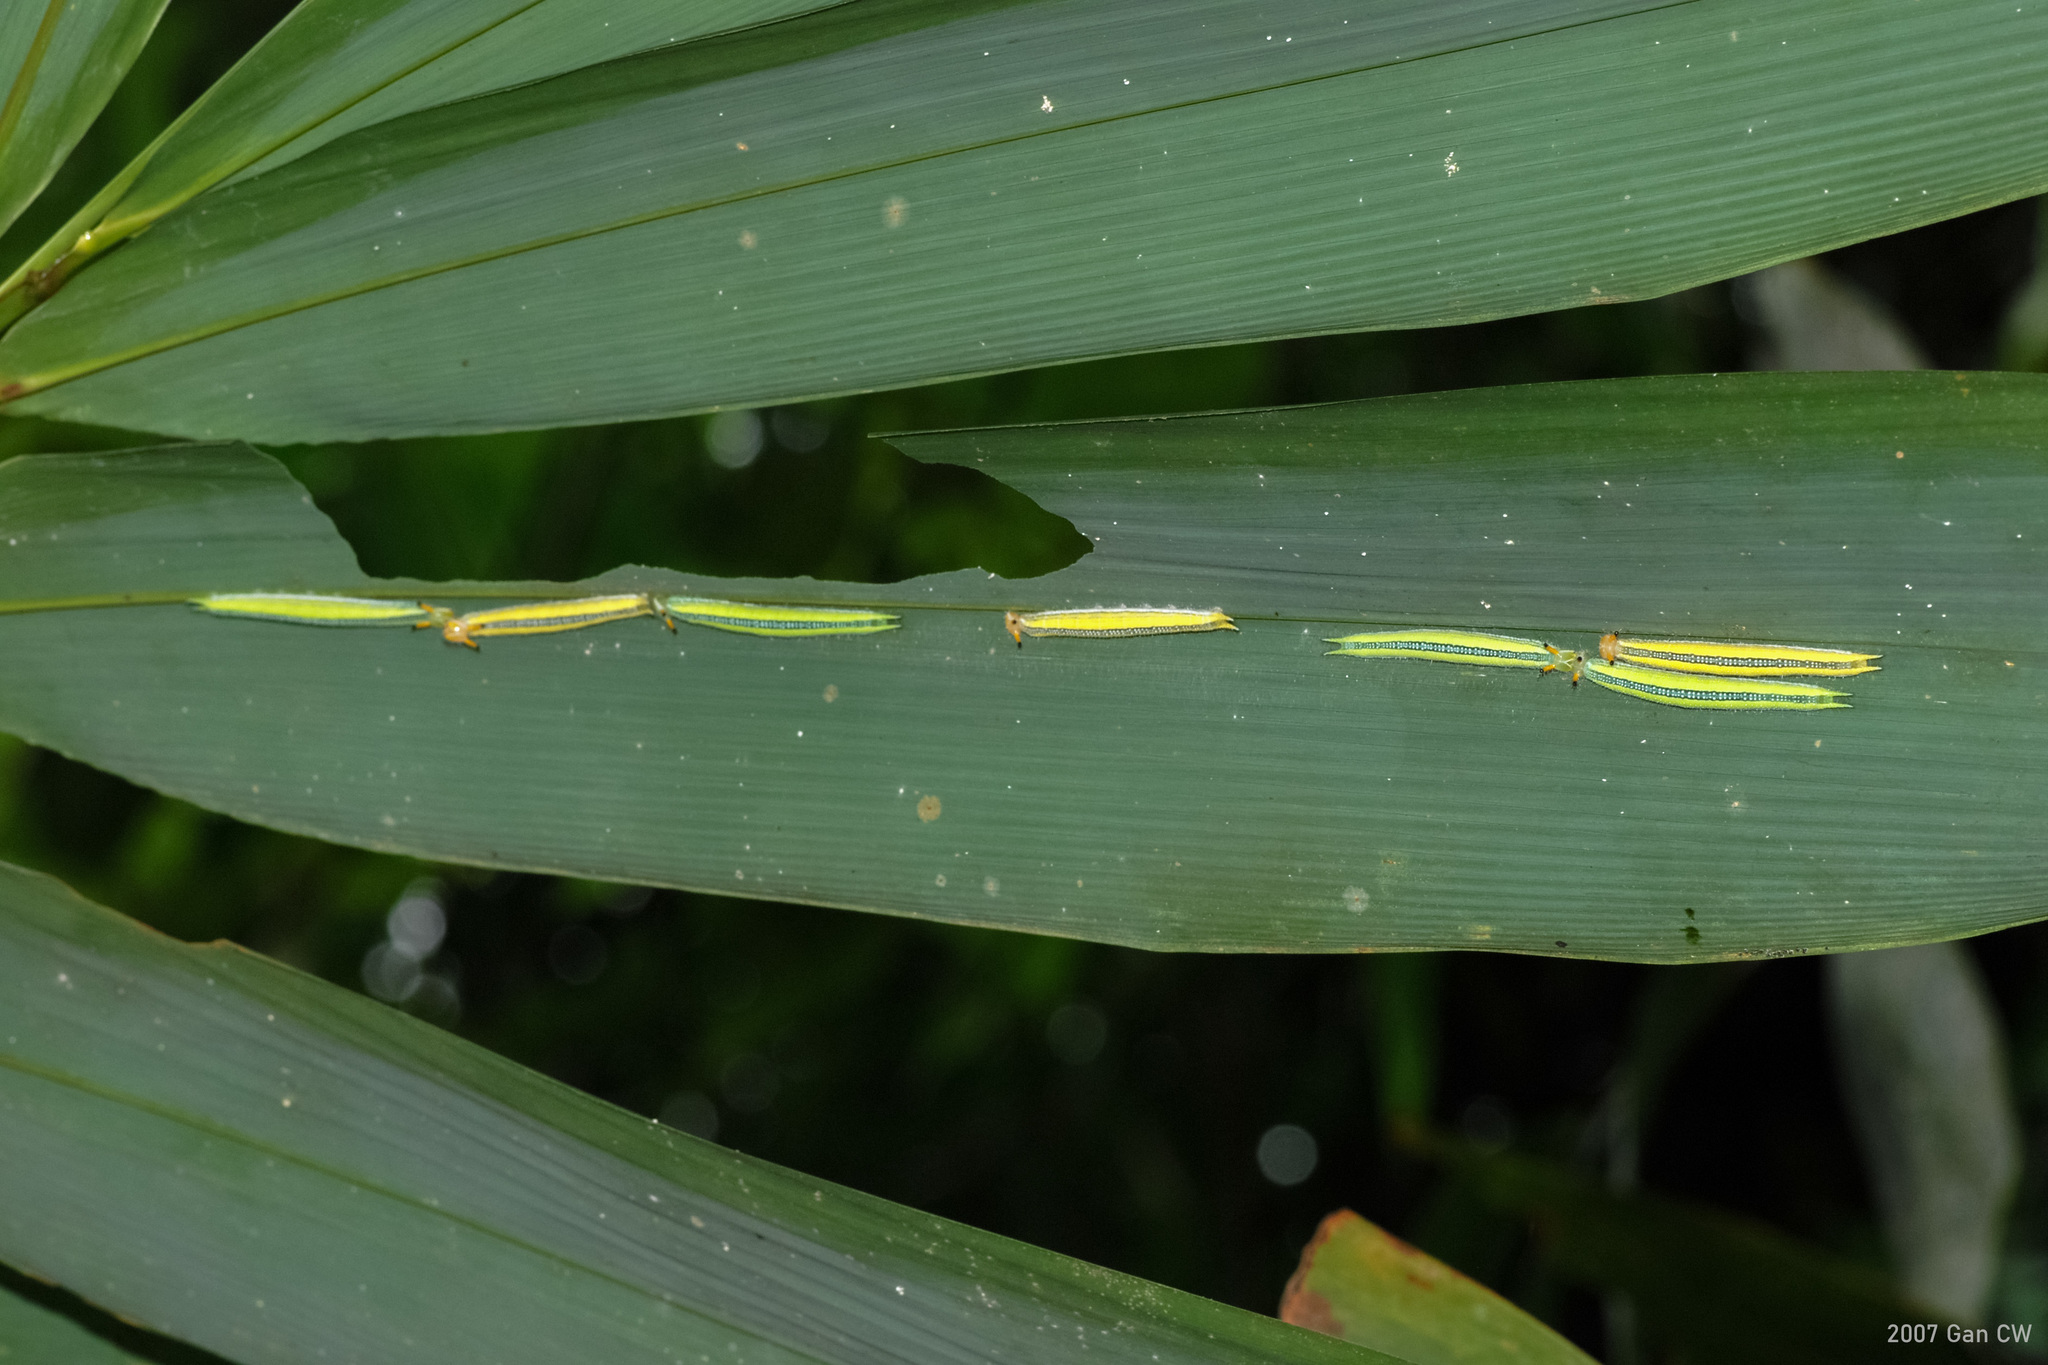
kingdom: Animalia
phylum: Arthropoda
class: Insecta
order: Lepidoptera
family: Nymphalidae
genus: Melanitis
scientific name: Melanitis zitenius
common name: Great evening brown
